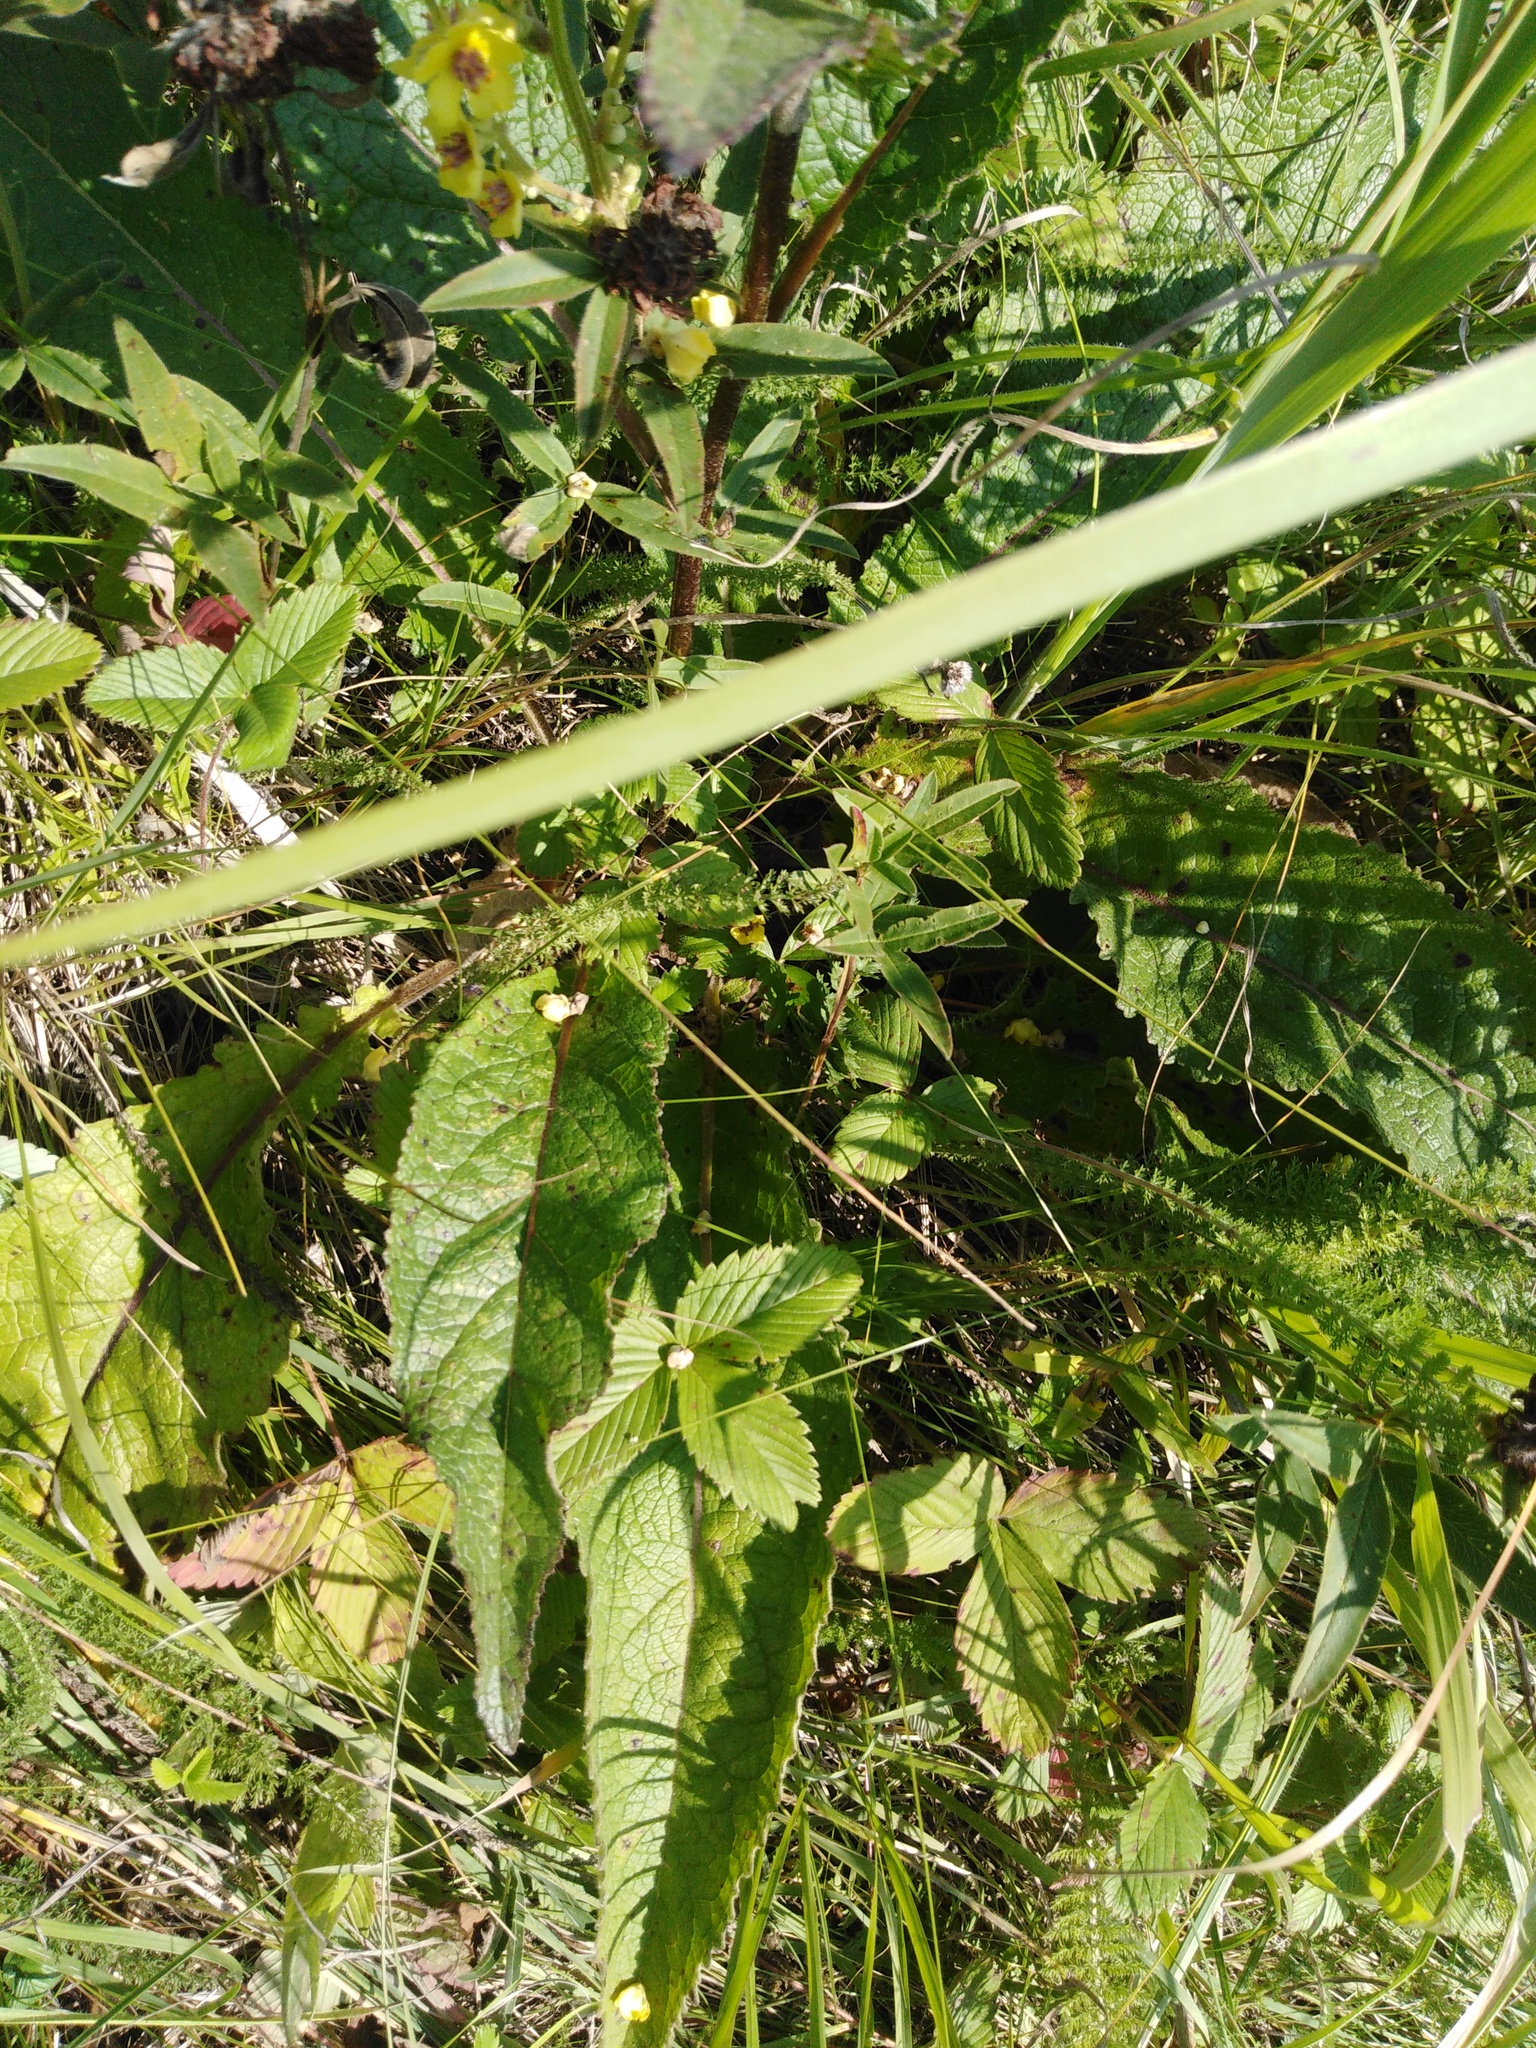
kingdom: Plantae
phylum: Tracheophyta
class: Magnoliopsida
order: Lamiales
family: Scrophulariaceae
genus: Verbascum
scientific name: Verbascum chaixii
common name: Nettle-leaved mullein
